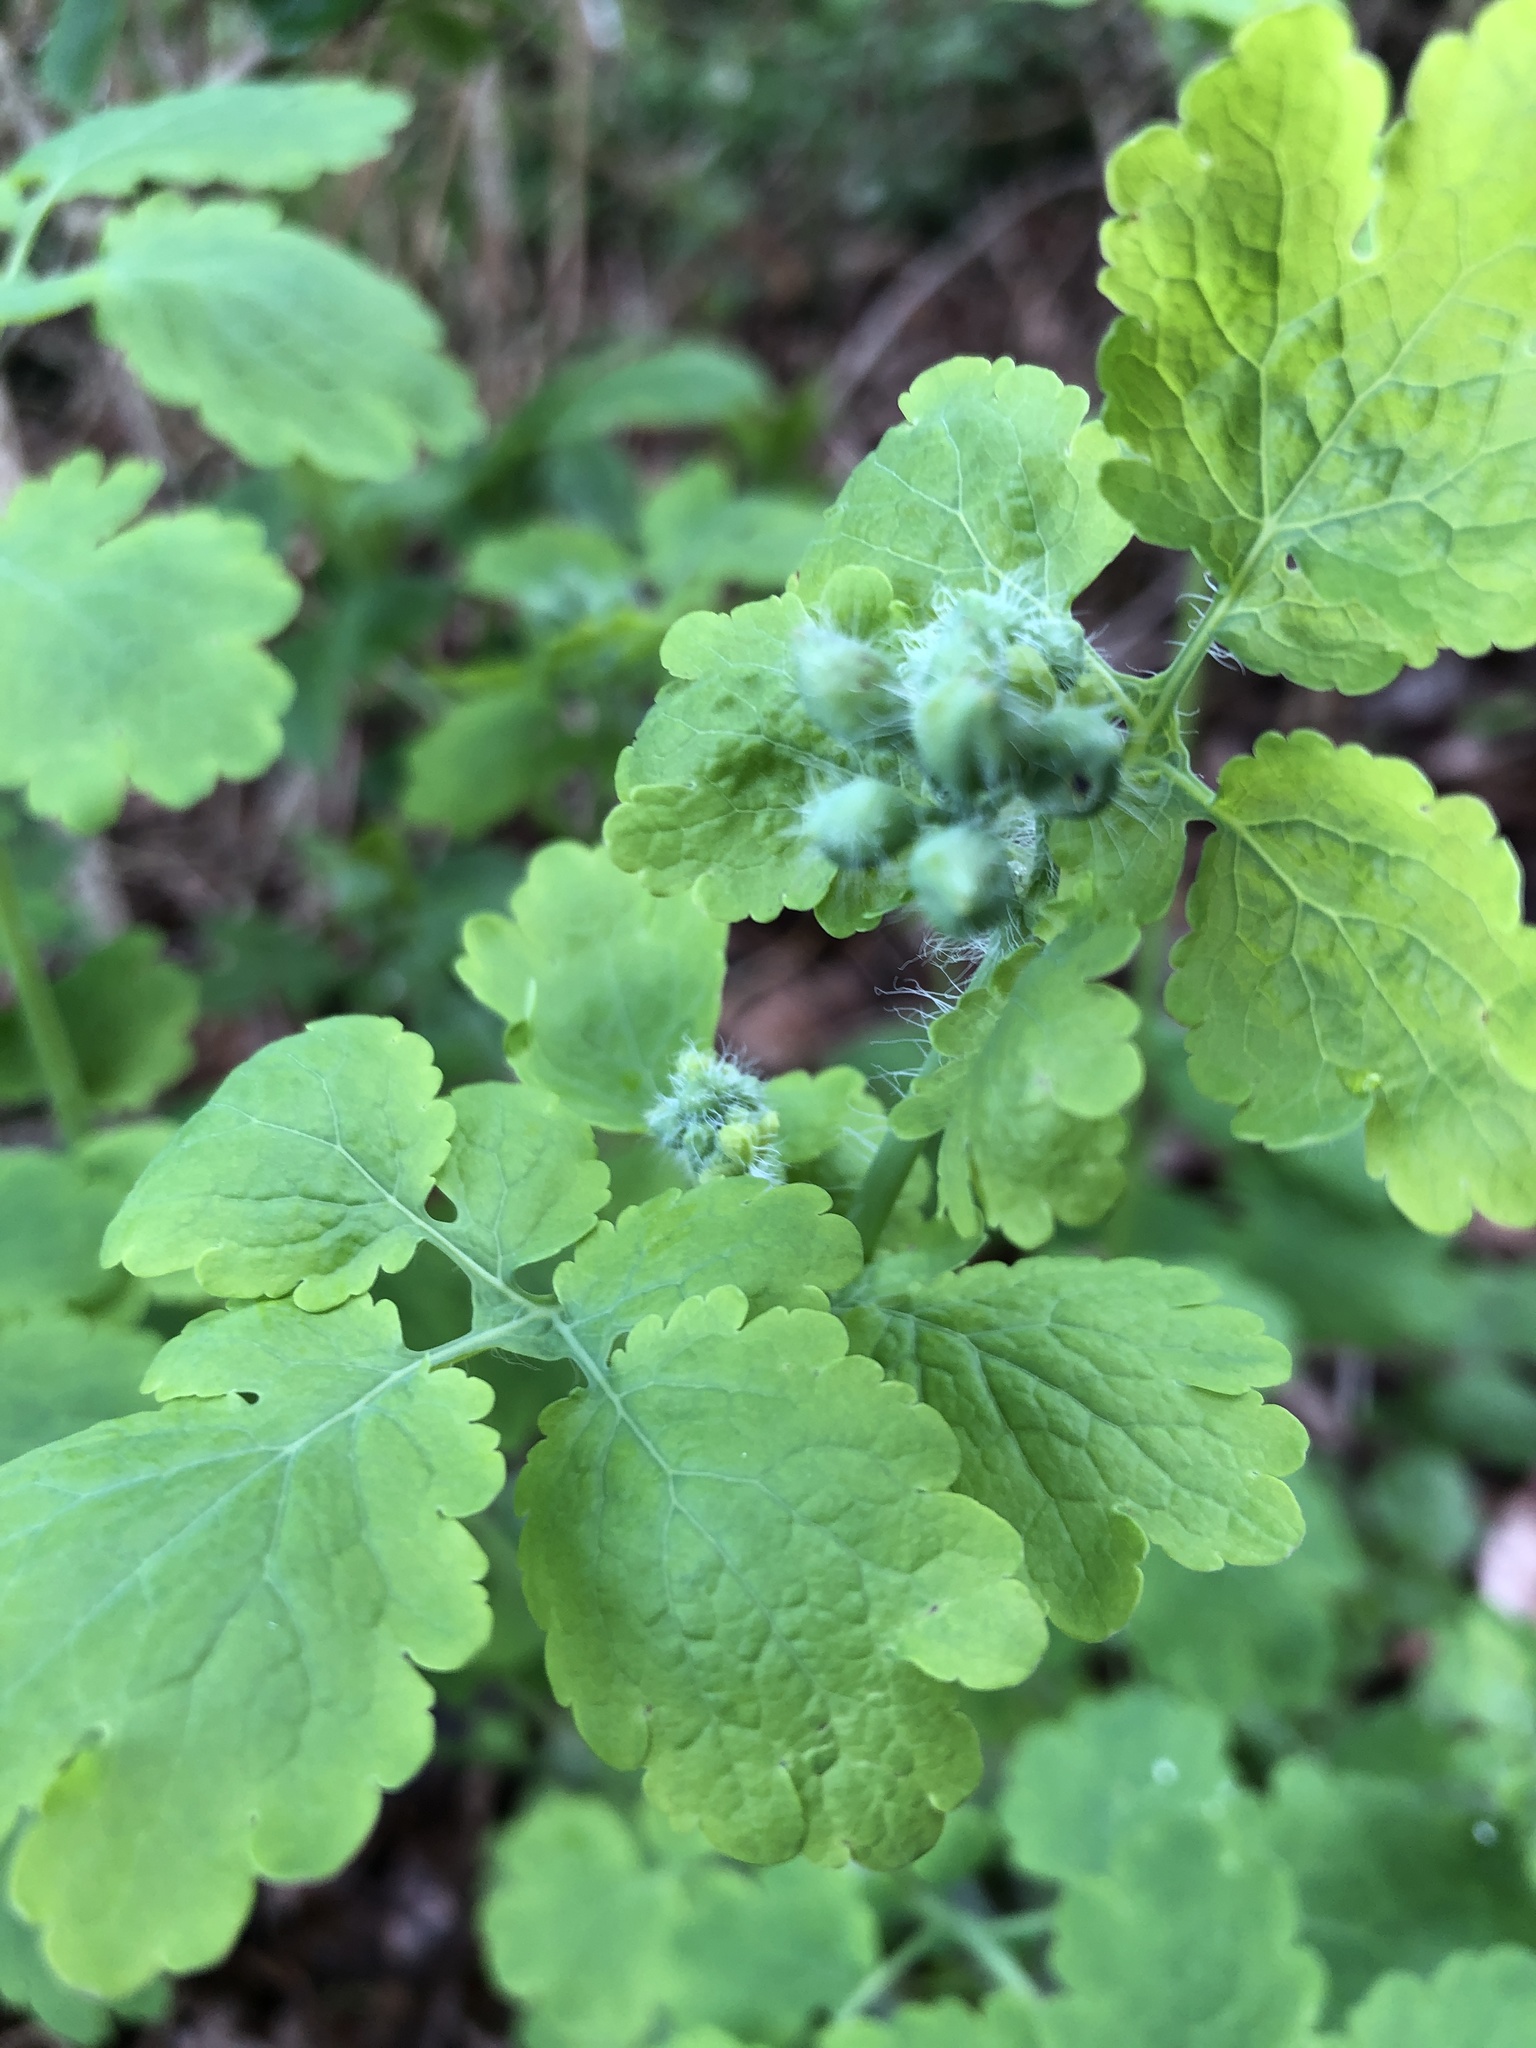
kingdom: Plantae
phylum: Tracheophyta
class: Magnoliopsida
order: Ranunculales
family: Papaveraceae
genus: Chelidonium
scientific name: Chelidonium majus
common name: Greater celandine
